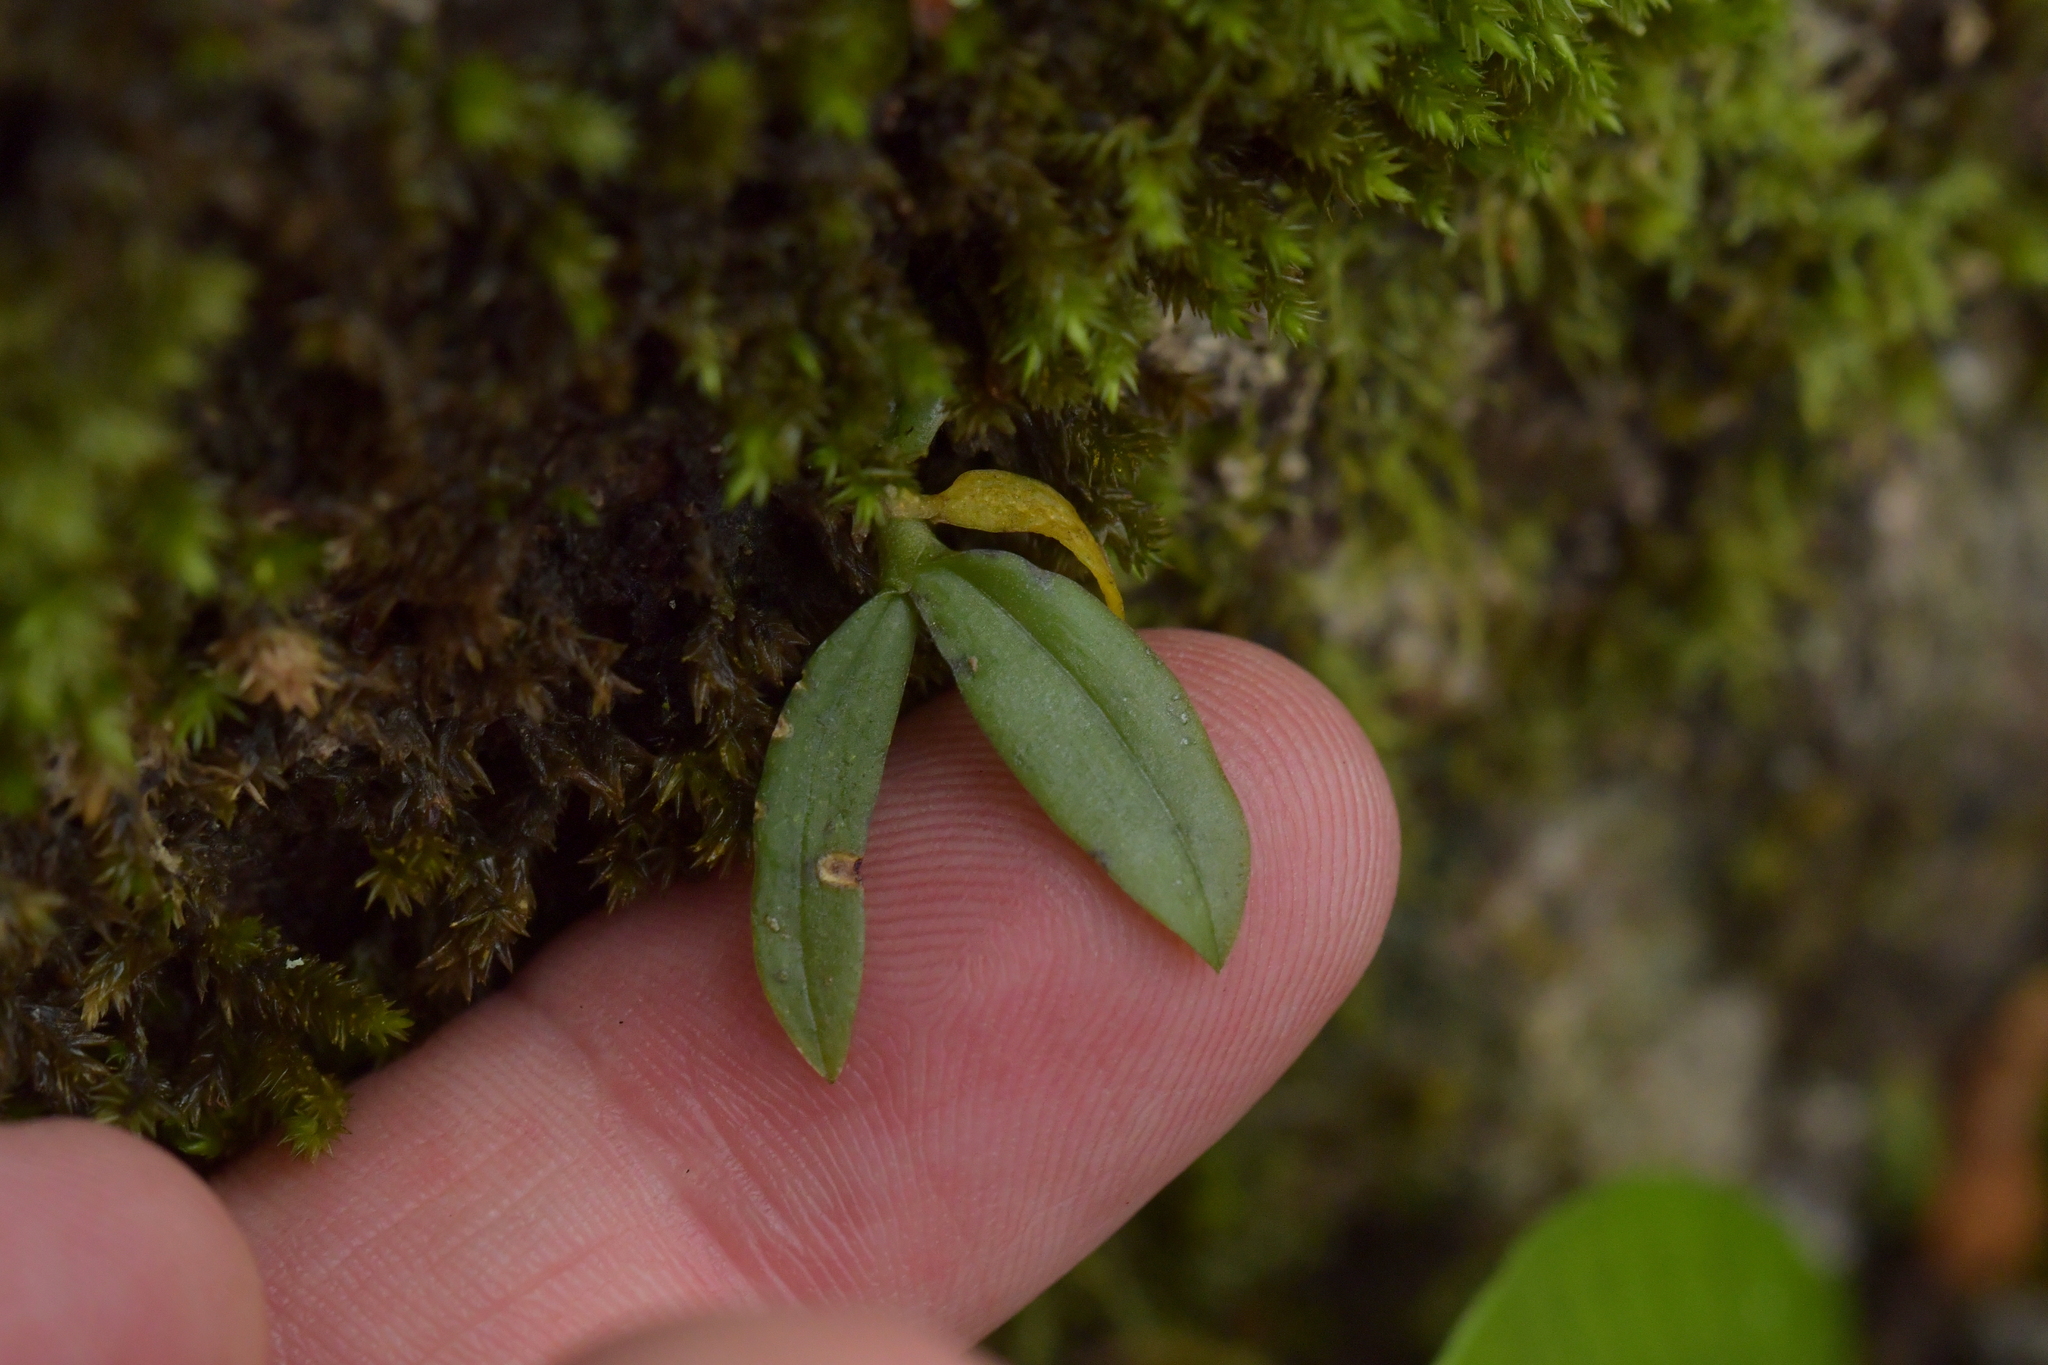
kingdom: Plantae
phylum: Tracheophyta
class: Liliopsida
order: Asparagales
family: Orchidaceae
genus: Drymoanthus
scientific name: Drymoanthus adversus
